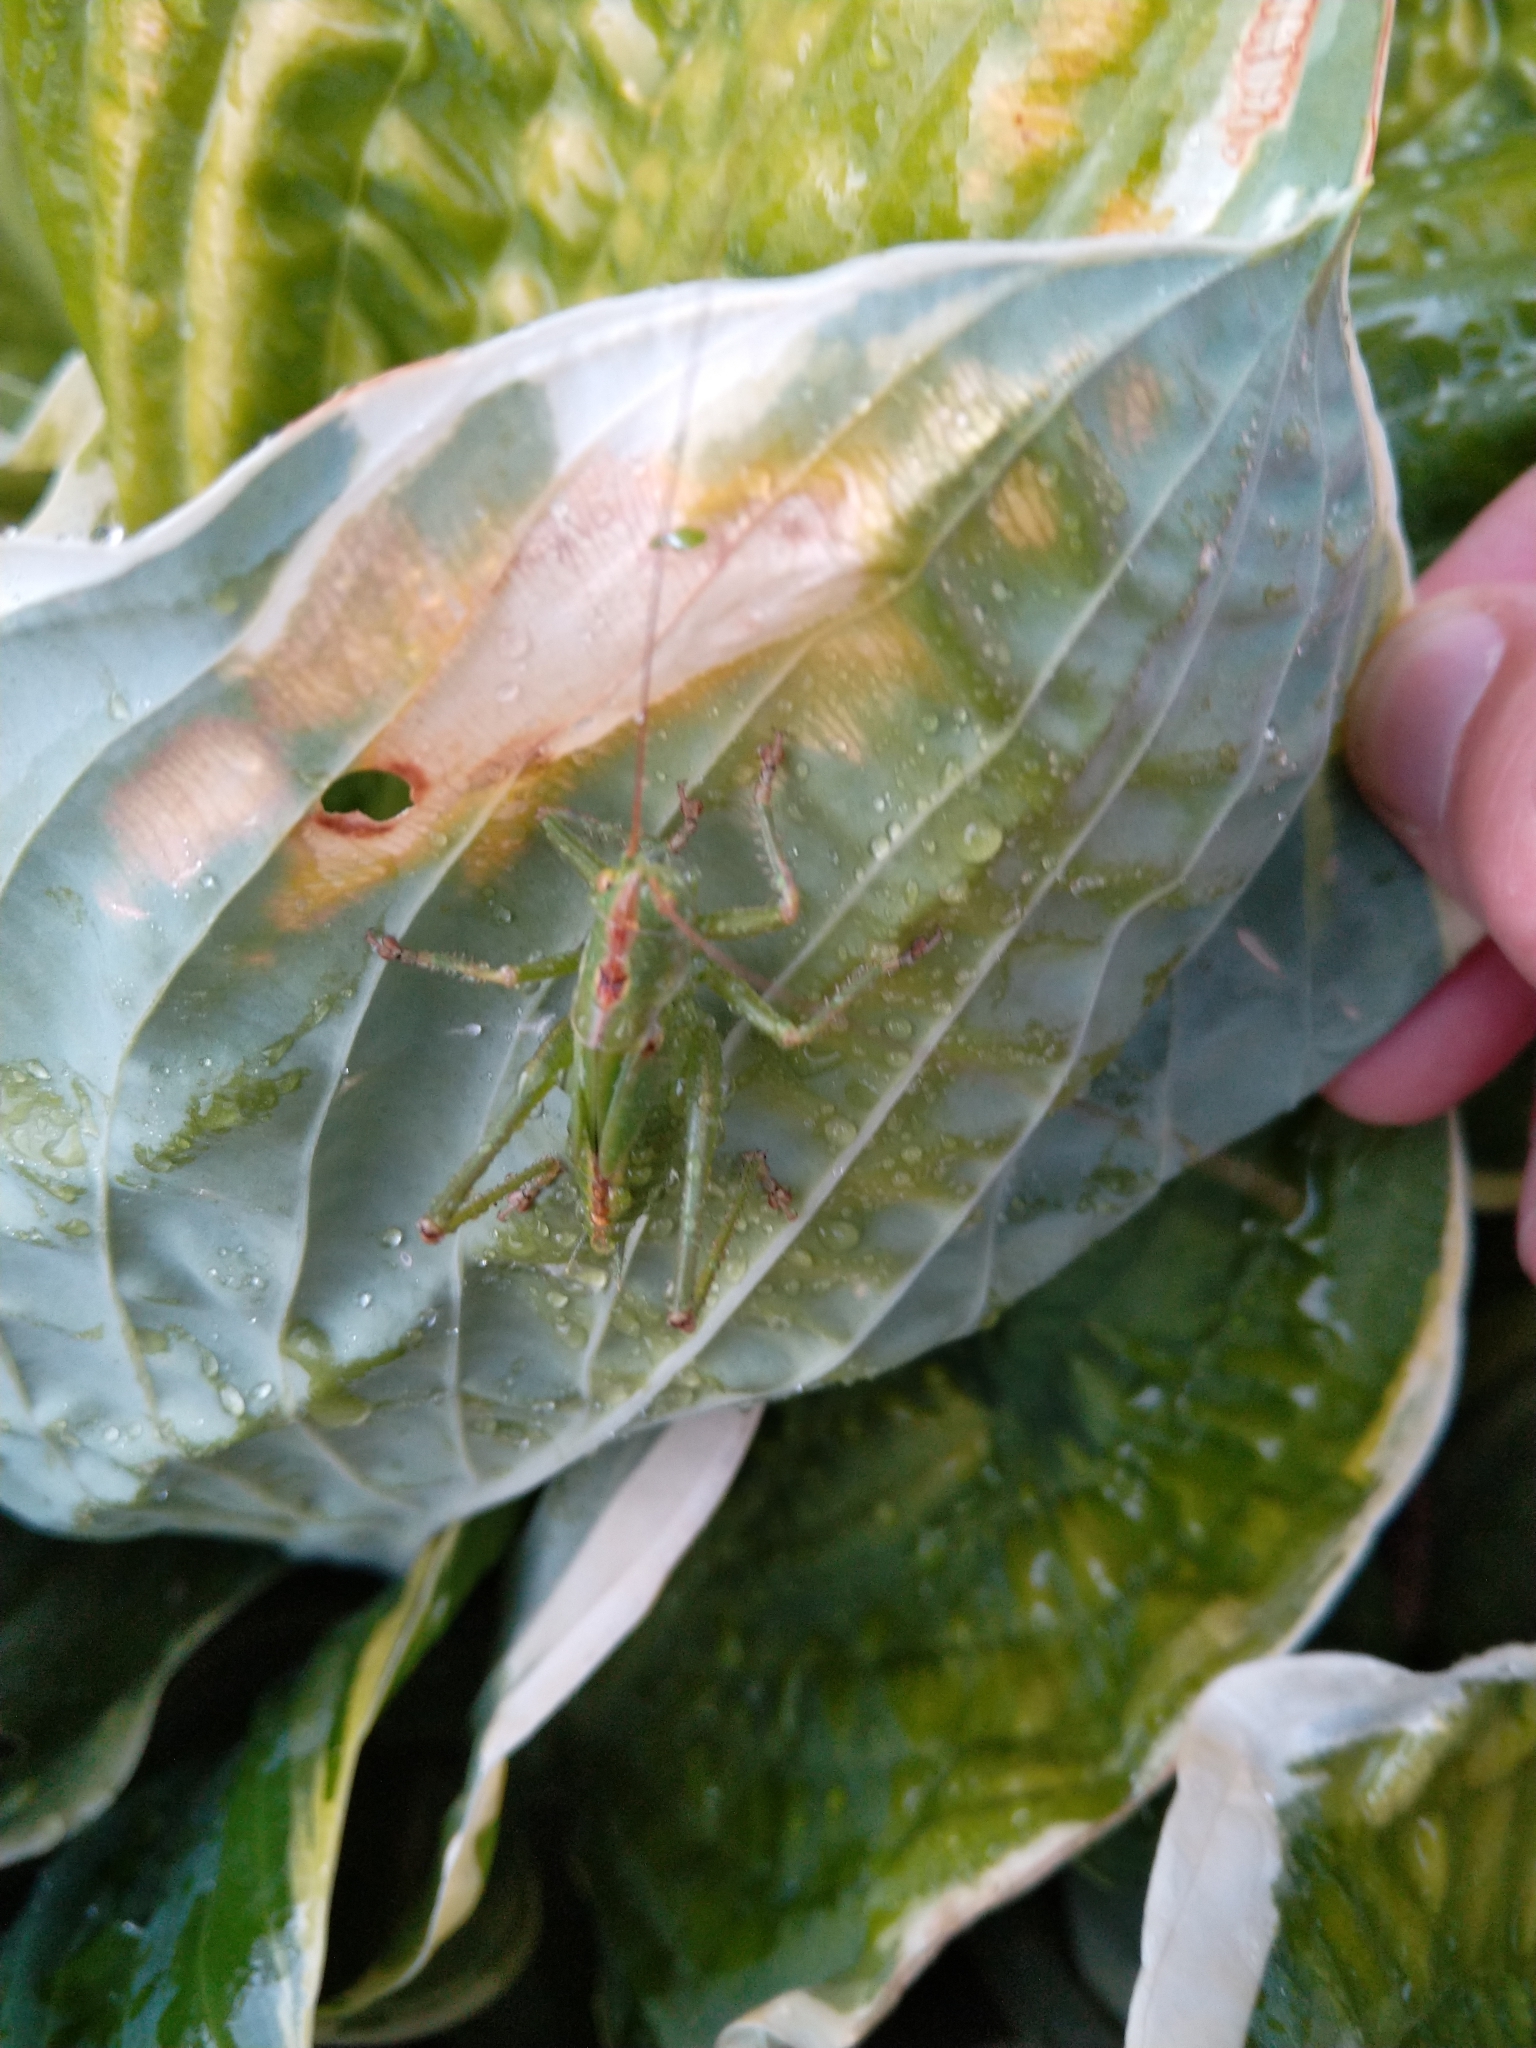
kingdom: Animalia
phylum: Arthropoda
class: Insecta
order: Orthoptera
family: Tettigoniidae
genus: Tettigonia
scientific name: Tettigonia viridissima
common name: Great green bush-cricket
